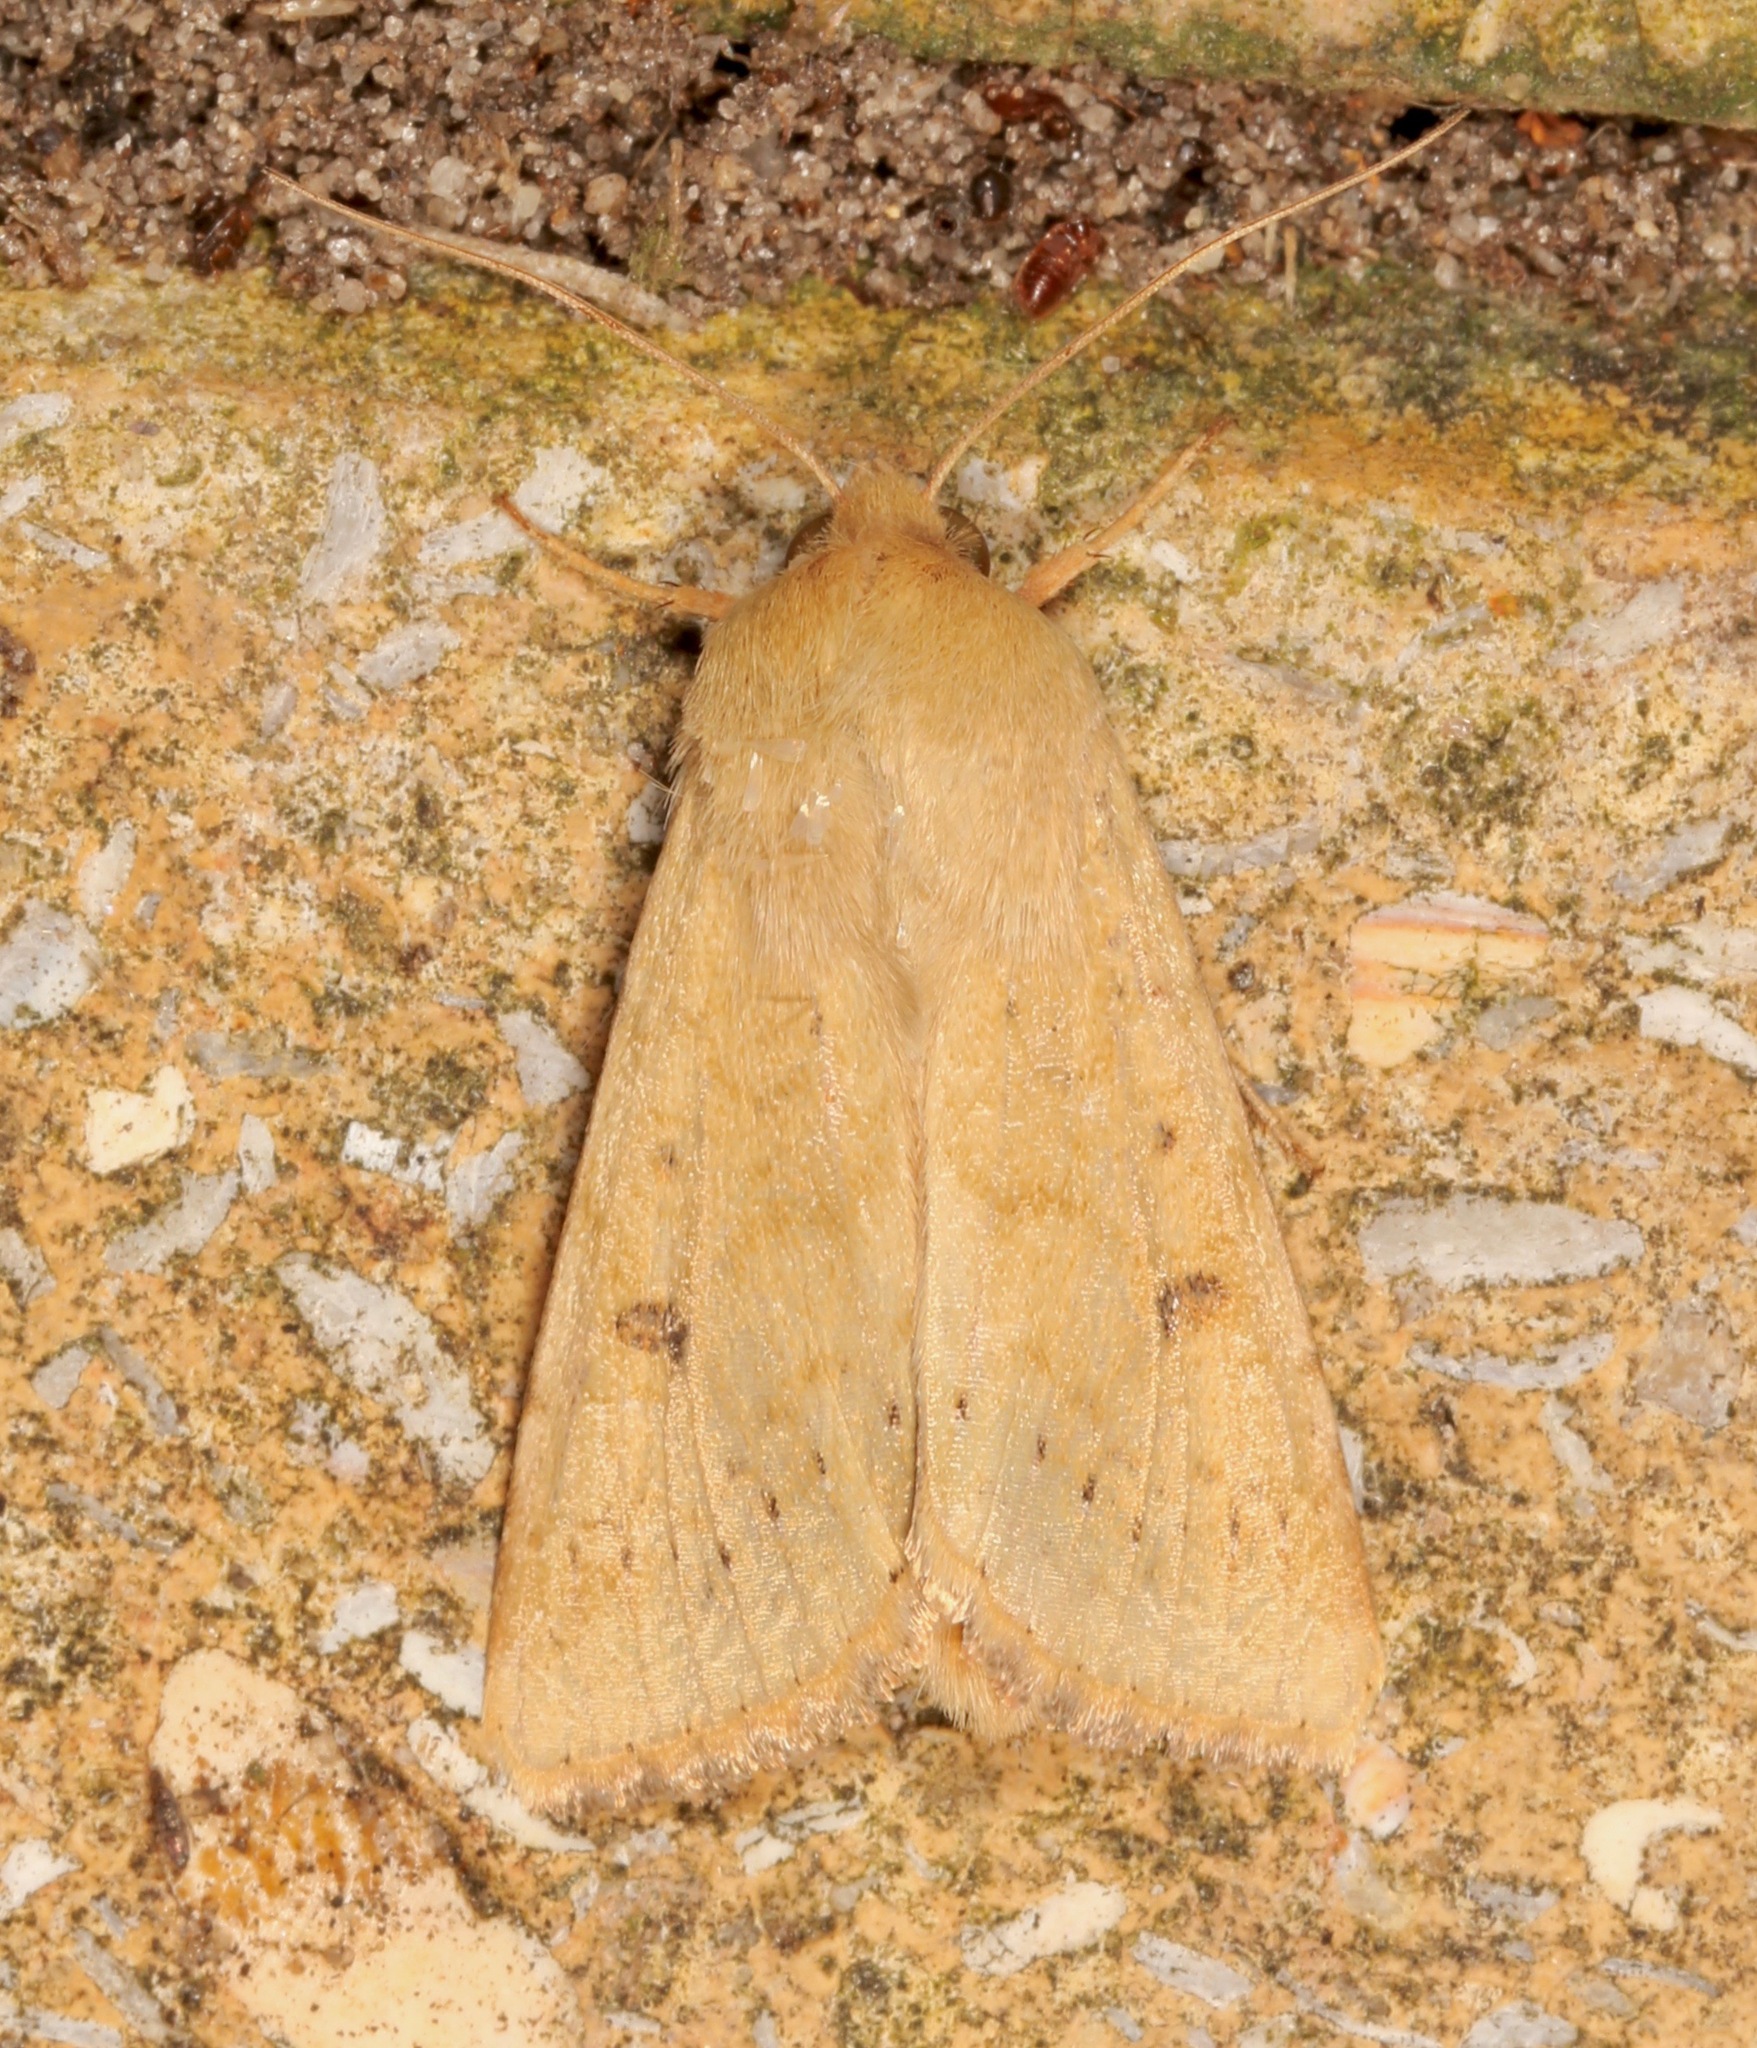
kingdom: Animalia
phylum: Arthropoda
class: Insecta
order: Lepidoptera
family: Noctuidae
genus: Helicoverpa
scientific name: Helicoverpa zea
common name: Bollworm
